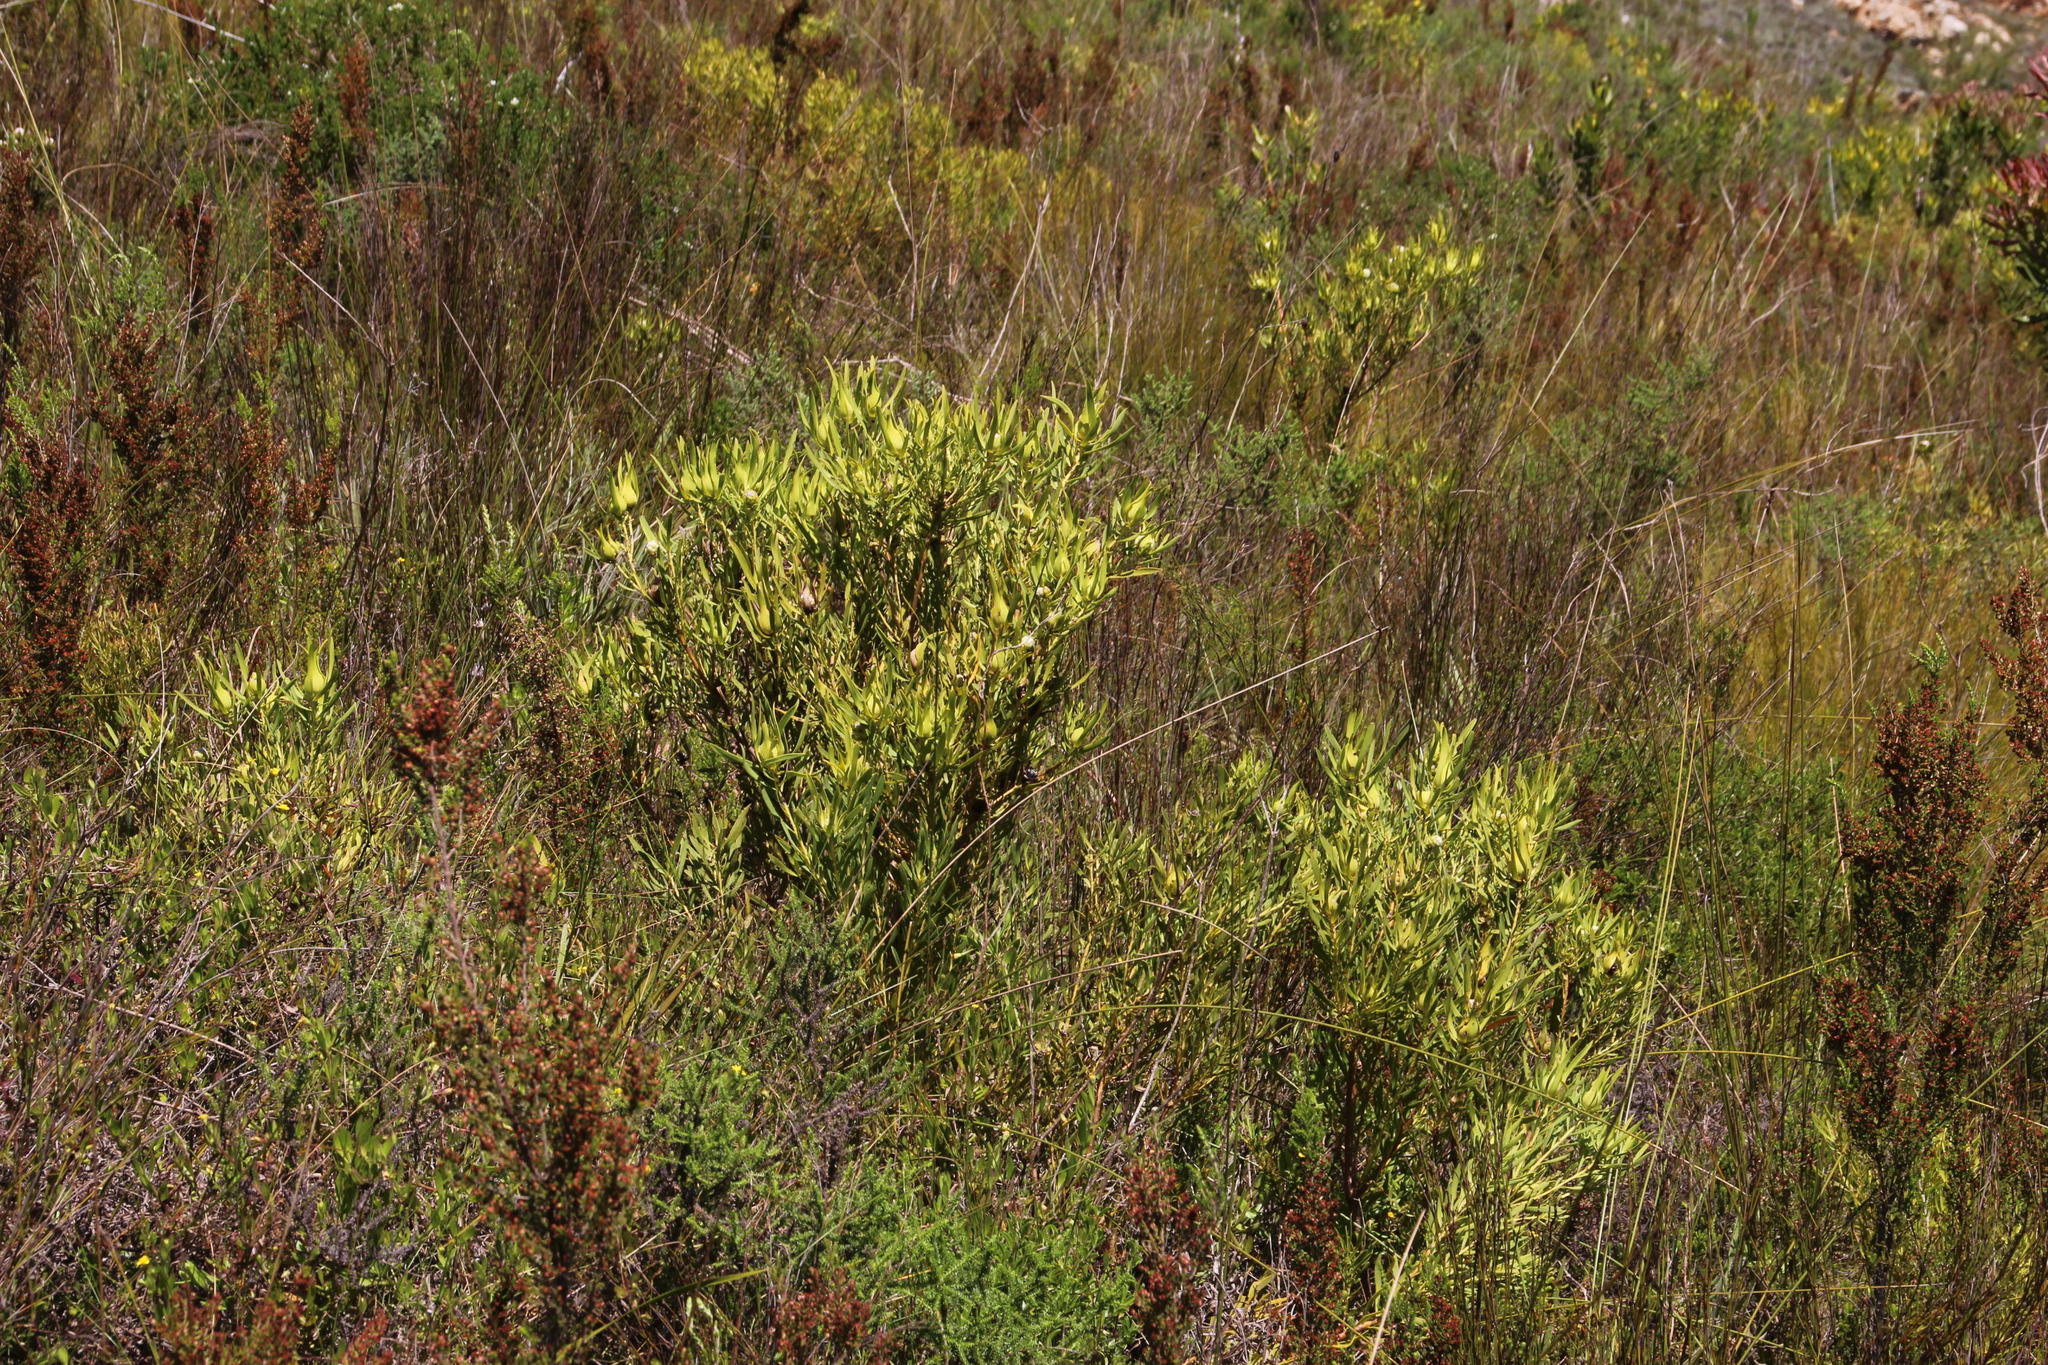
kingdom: Plantae
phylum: Tracheophyta
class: Magnoliopsida
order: Proteales
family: Proteaceae
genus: Leucadendron
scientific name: Leucadendron salignum
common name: Common sunshine conebush
